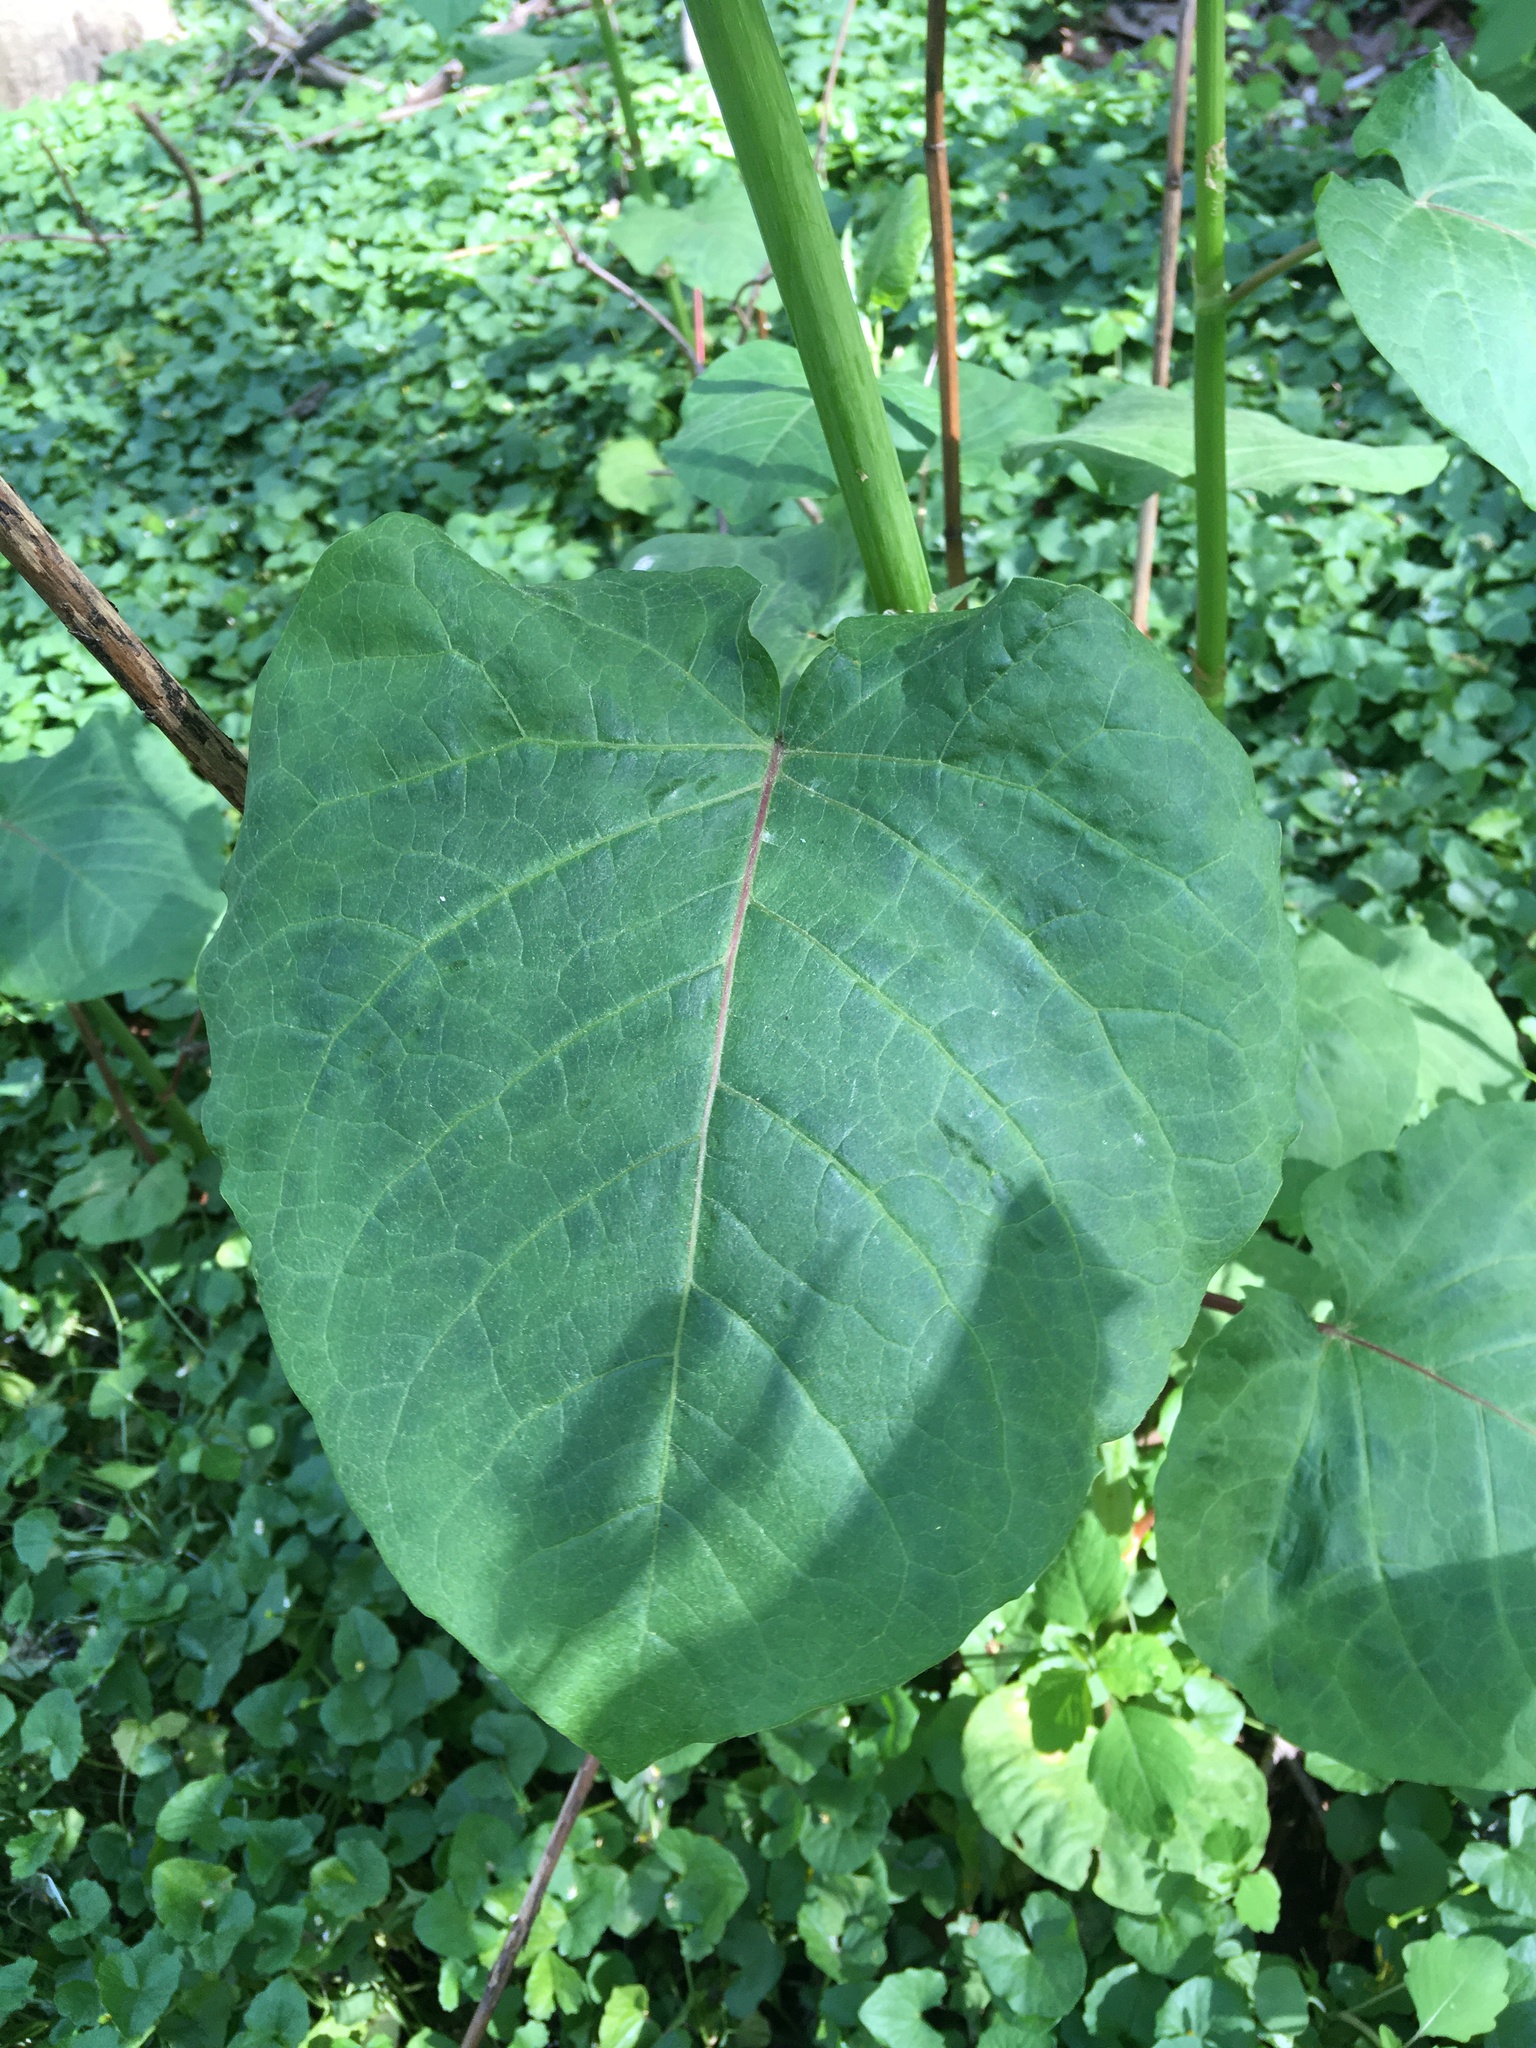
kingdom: Plantae
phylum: Tracheophyta
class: Magnoliopsida
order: Caryophyllales
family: Polygonaceae
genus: Reynoutria
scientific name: Reynoutria sachalinensis
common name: Giant knotweed
